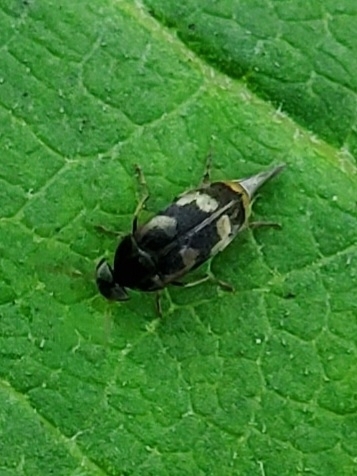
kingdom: Animalia
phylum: Arthropoda
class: Insecta
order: Coleoptera
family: Mordellidae
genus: Falsomordellistena
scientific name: Falsomordellistena pubescens
